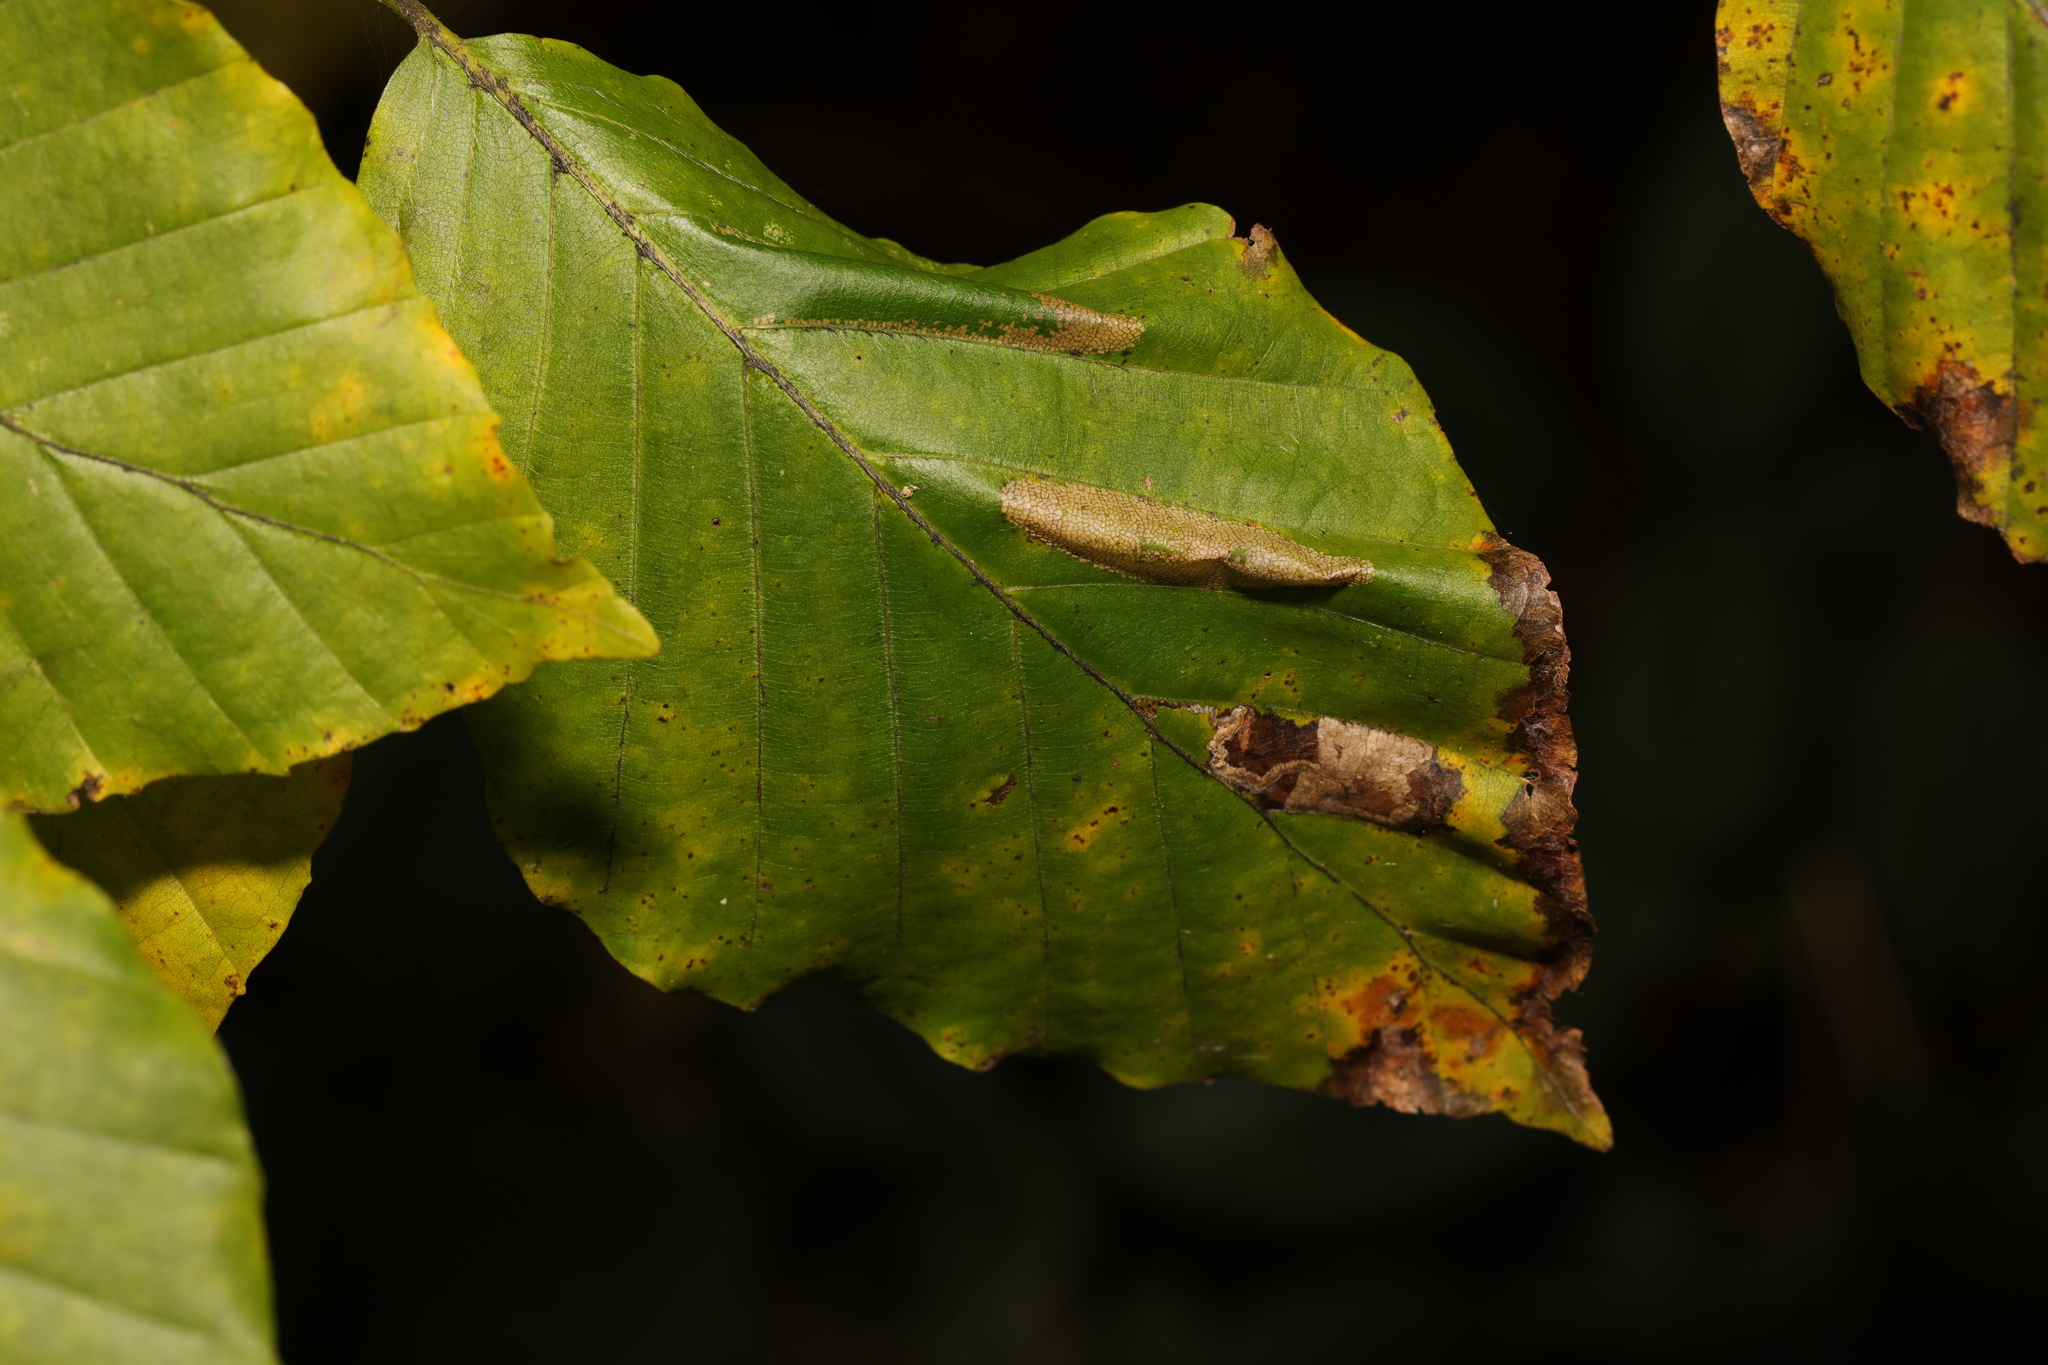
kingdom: Animalia
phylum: Arthropoda
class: Insecta
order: Lepidoptera
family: Gracillariidae
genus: Phyllonorycter
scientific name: Phyllonorycter maestingella
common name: Beech midget
